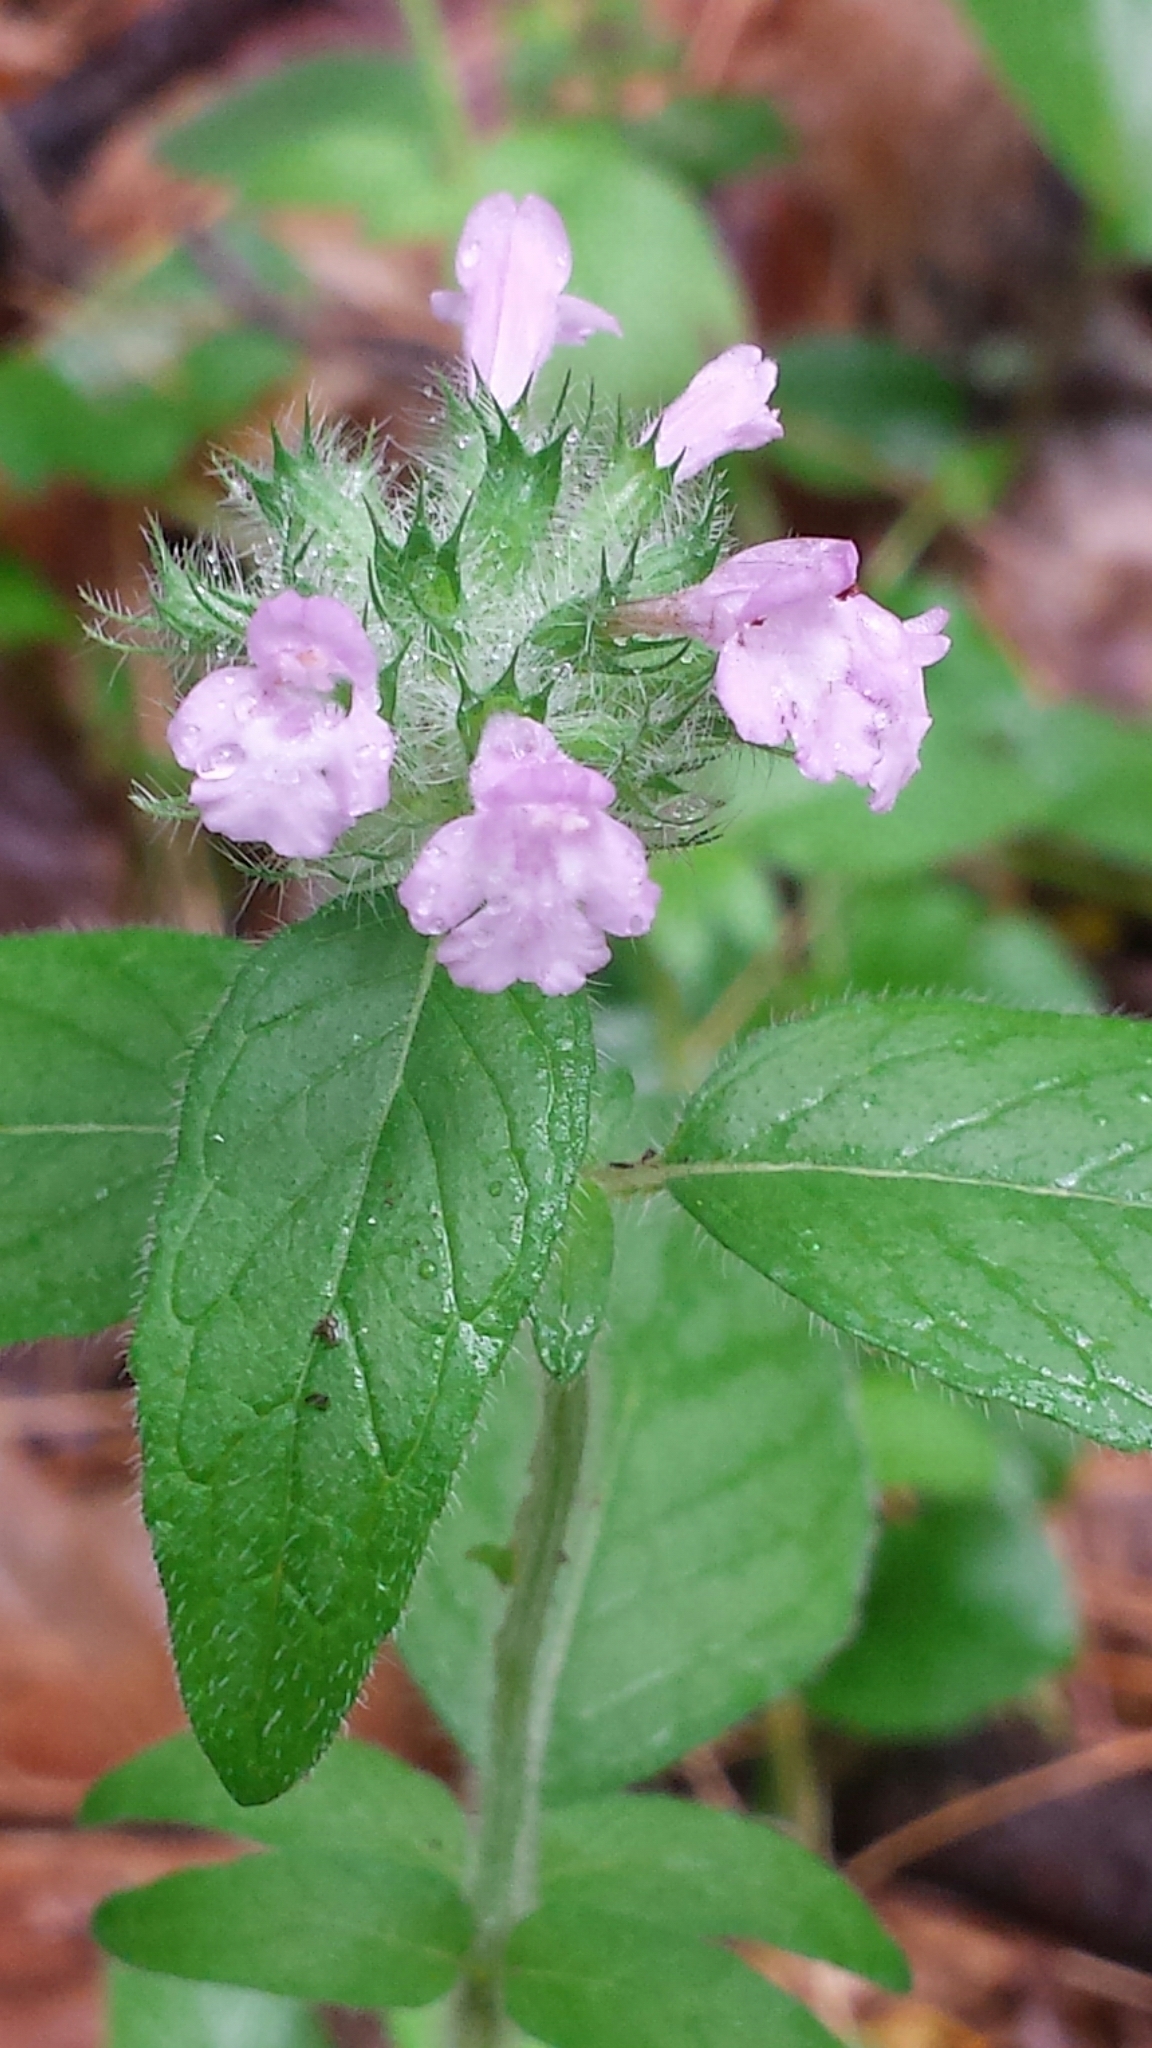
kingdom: Plantae
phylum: Tracheophyta
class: Magnoliopsida
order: Lamiales
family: Lamiaceae
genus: Clinopodium
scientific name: Clinopodium vulgare
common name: Wild basil
